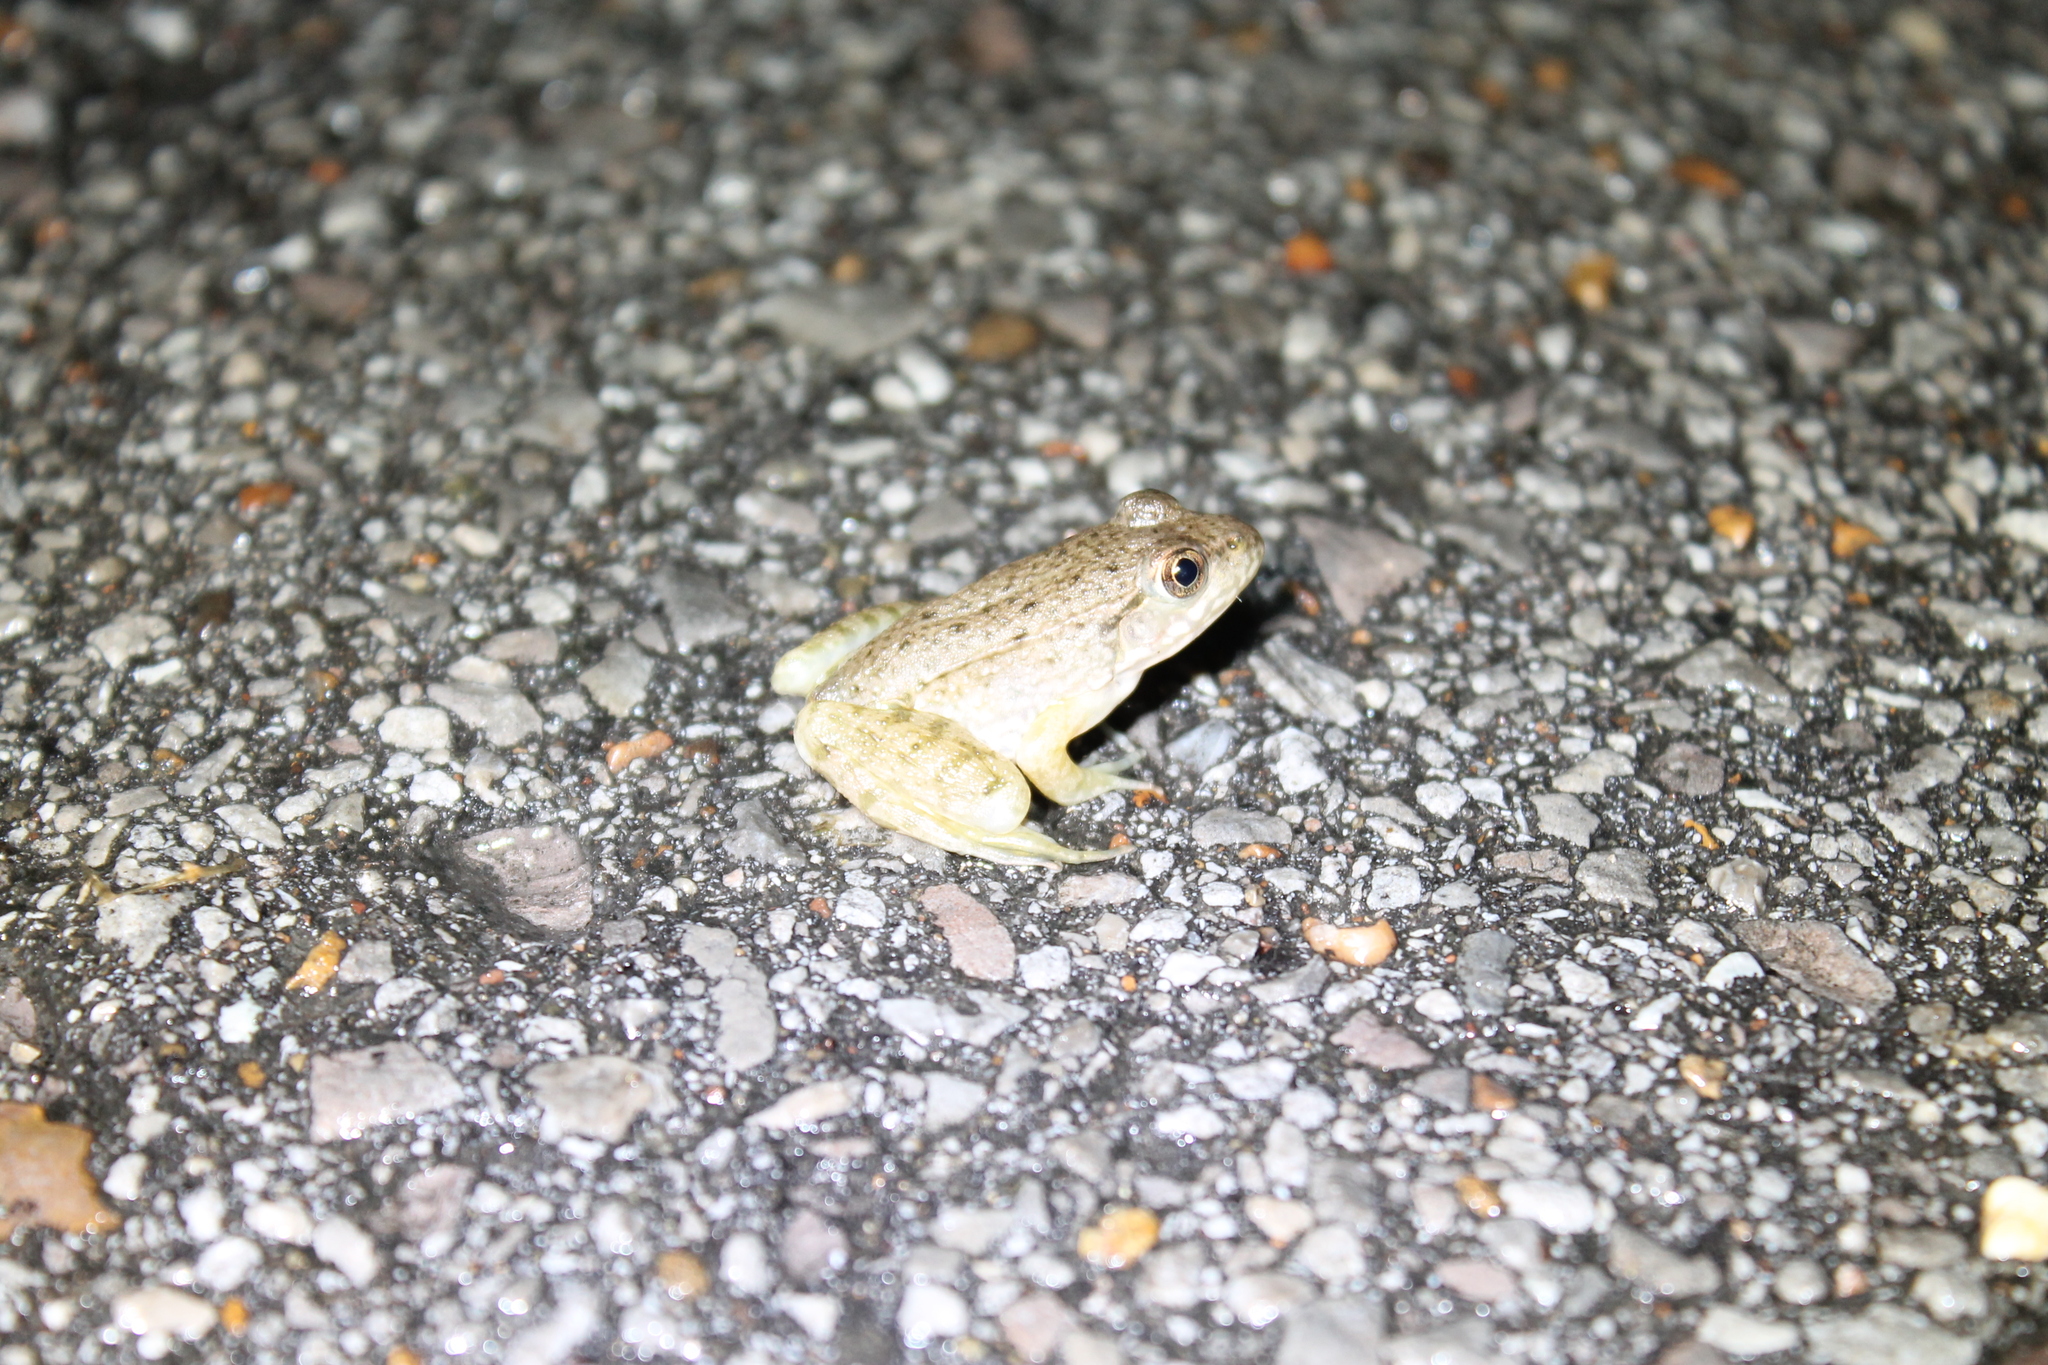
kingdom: Animalia
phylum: Chordata
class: Amphibia
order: Anura
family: Ranidae
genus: Lithobates
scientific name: Lithobates clamitans
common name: Green frog
